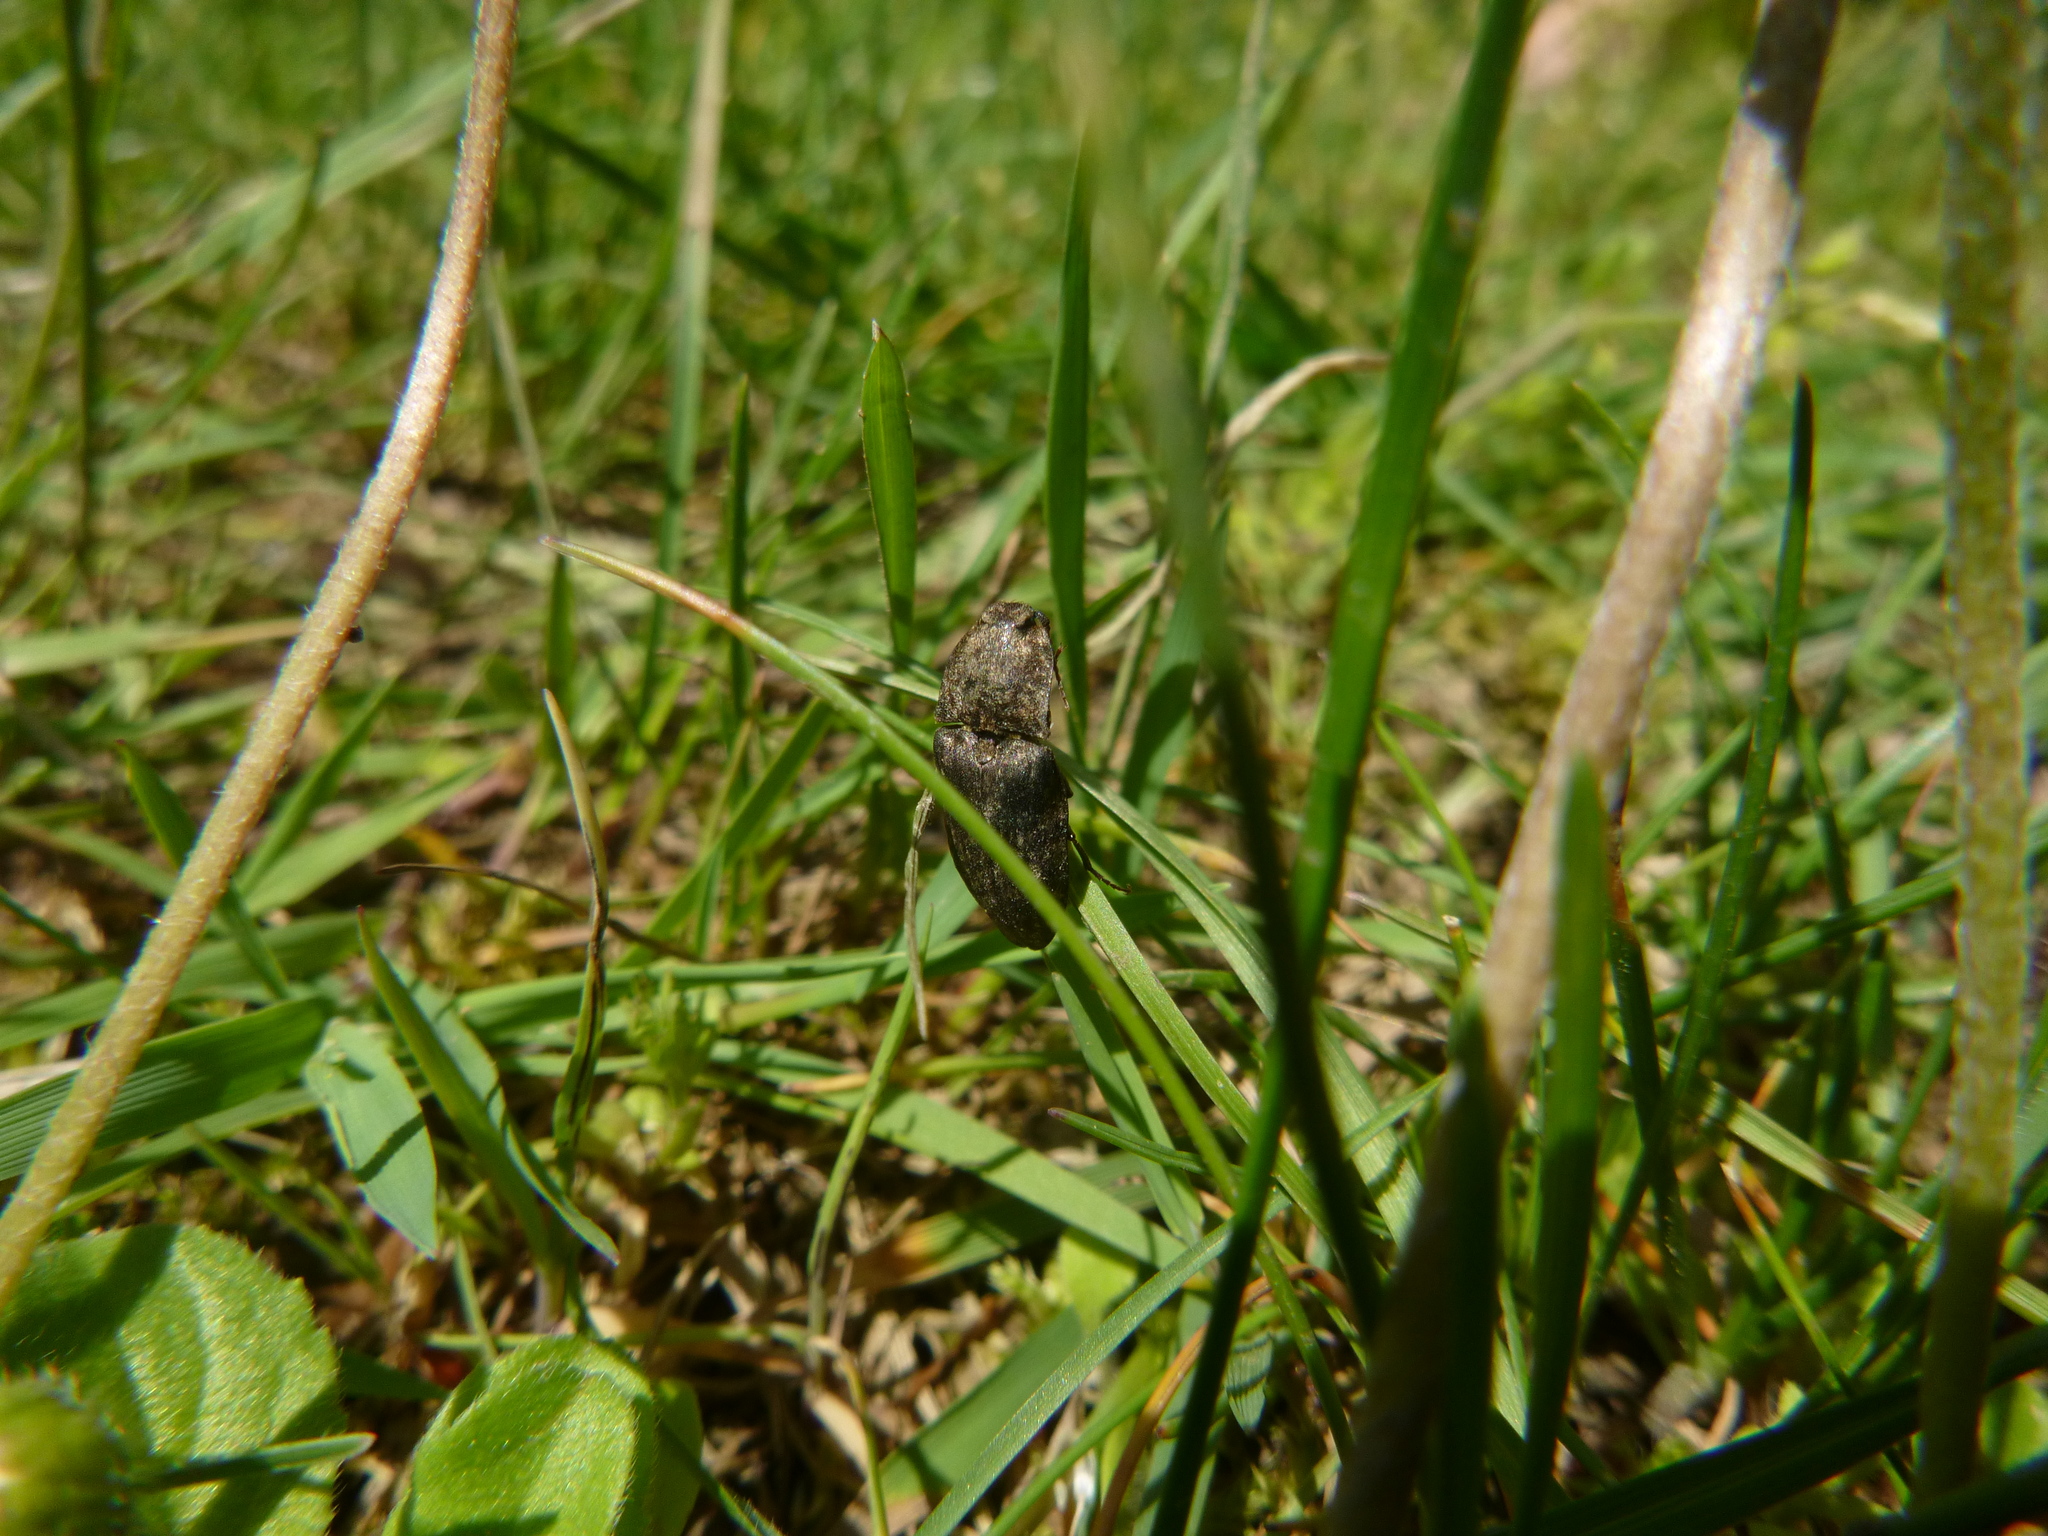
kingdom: Animalia
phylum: Arthropoda
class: Insecta
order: Coleoptera
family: Elateridae
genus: Agrypnus
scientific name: Agrypnus murinus
